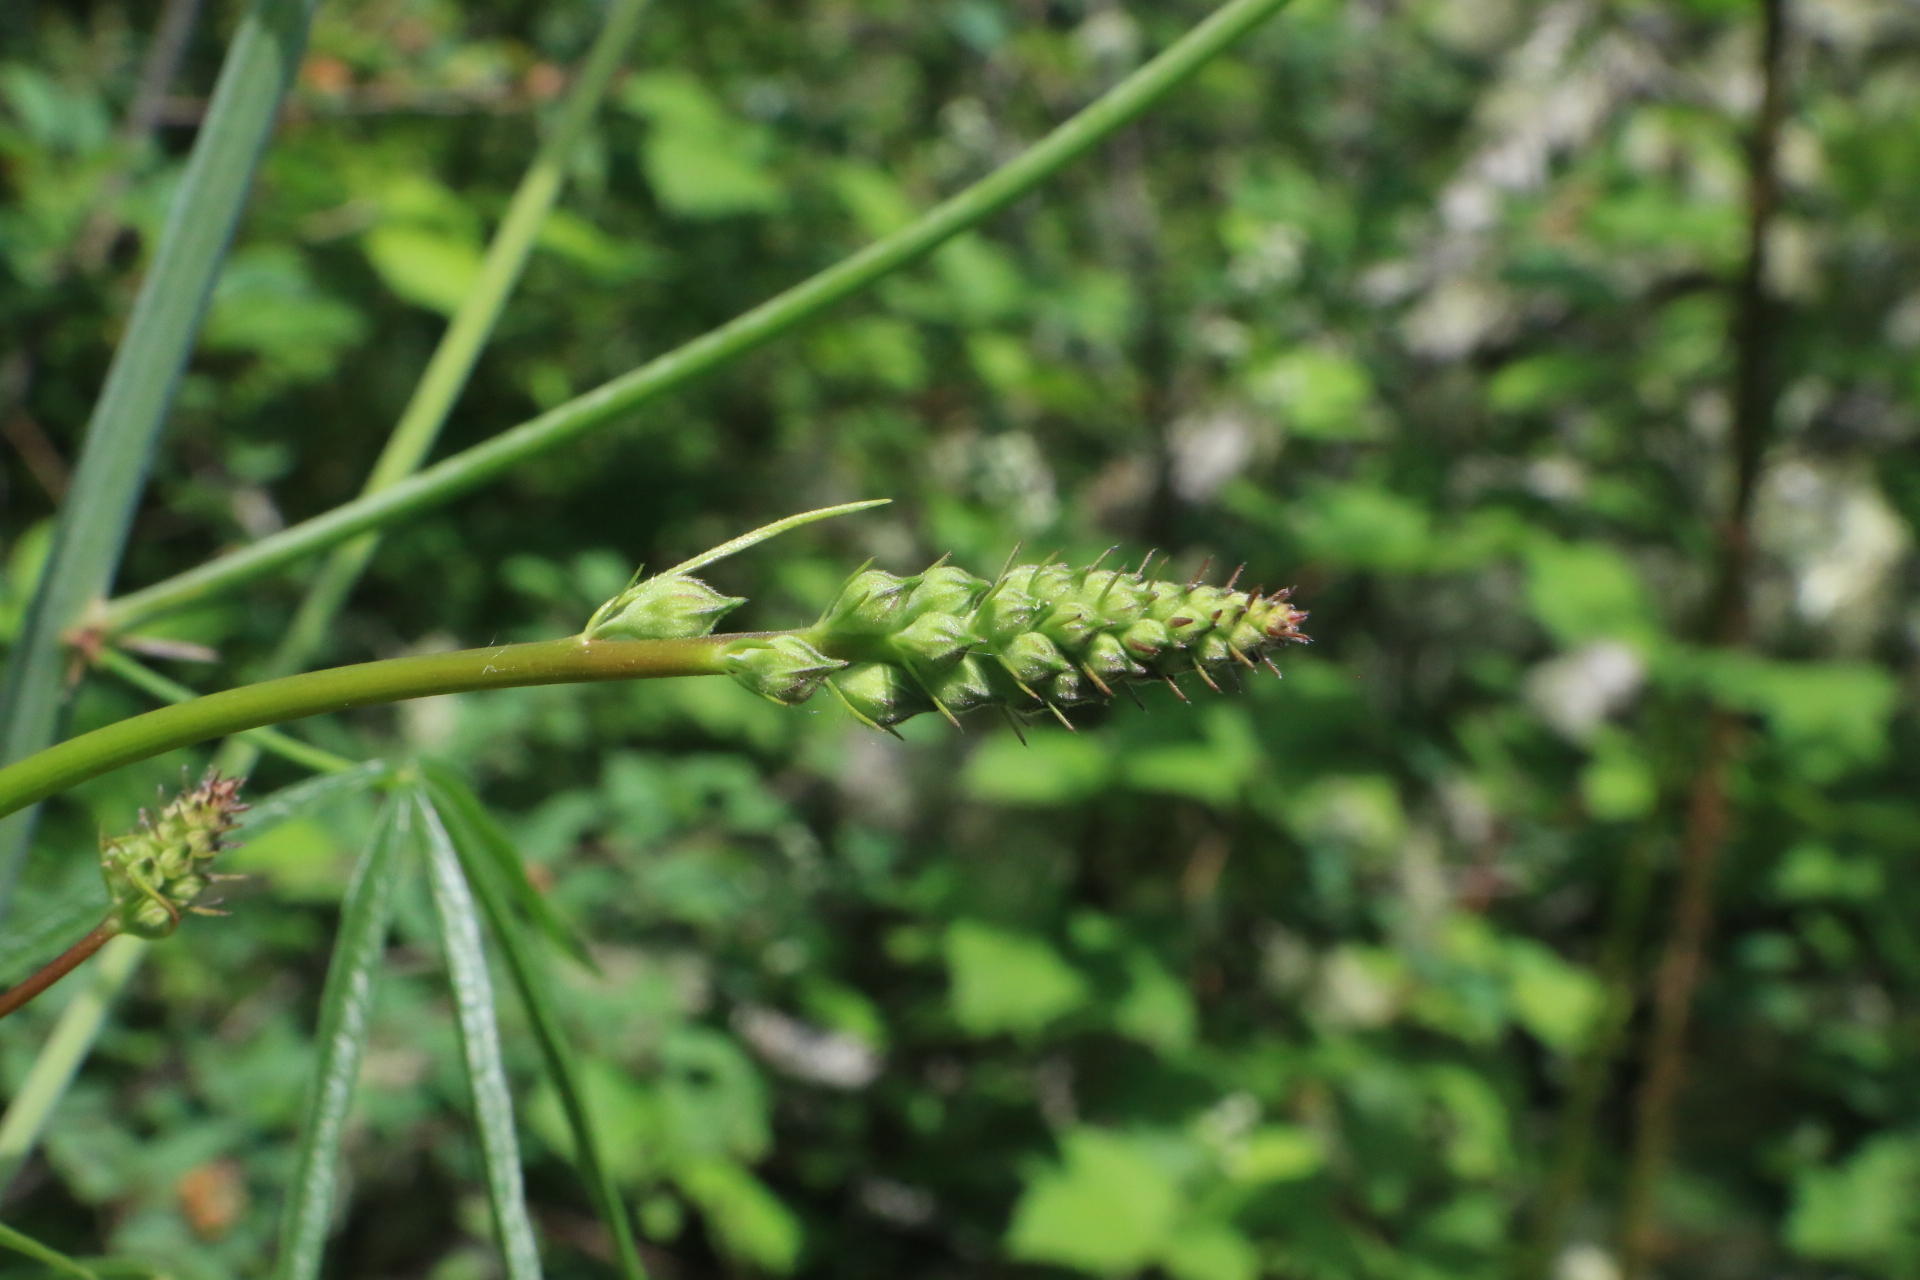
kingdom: Plantae
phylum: Tracheophyta
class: Magnoliopsida
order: Malvales
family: Malvaceae
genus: Sidalcea
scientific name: Sidalcea campestris
